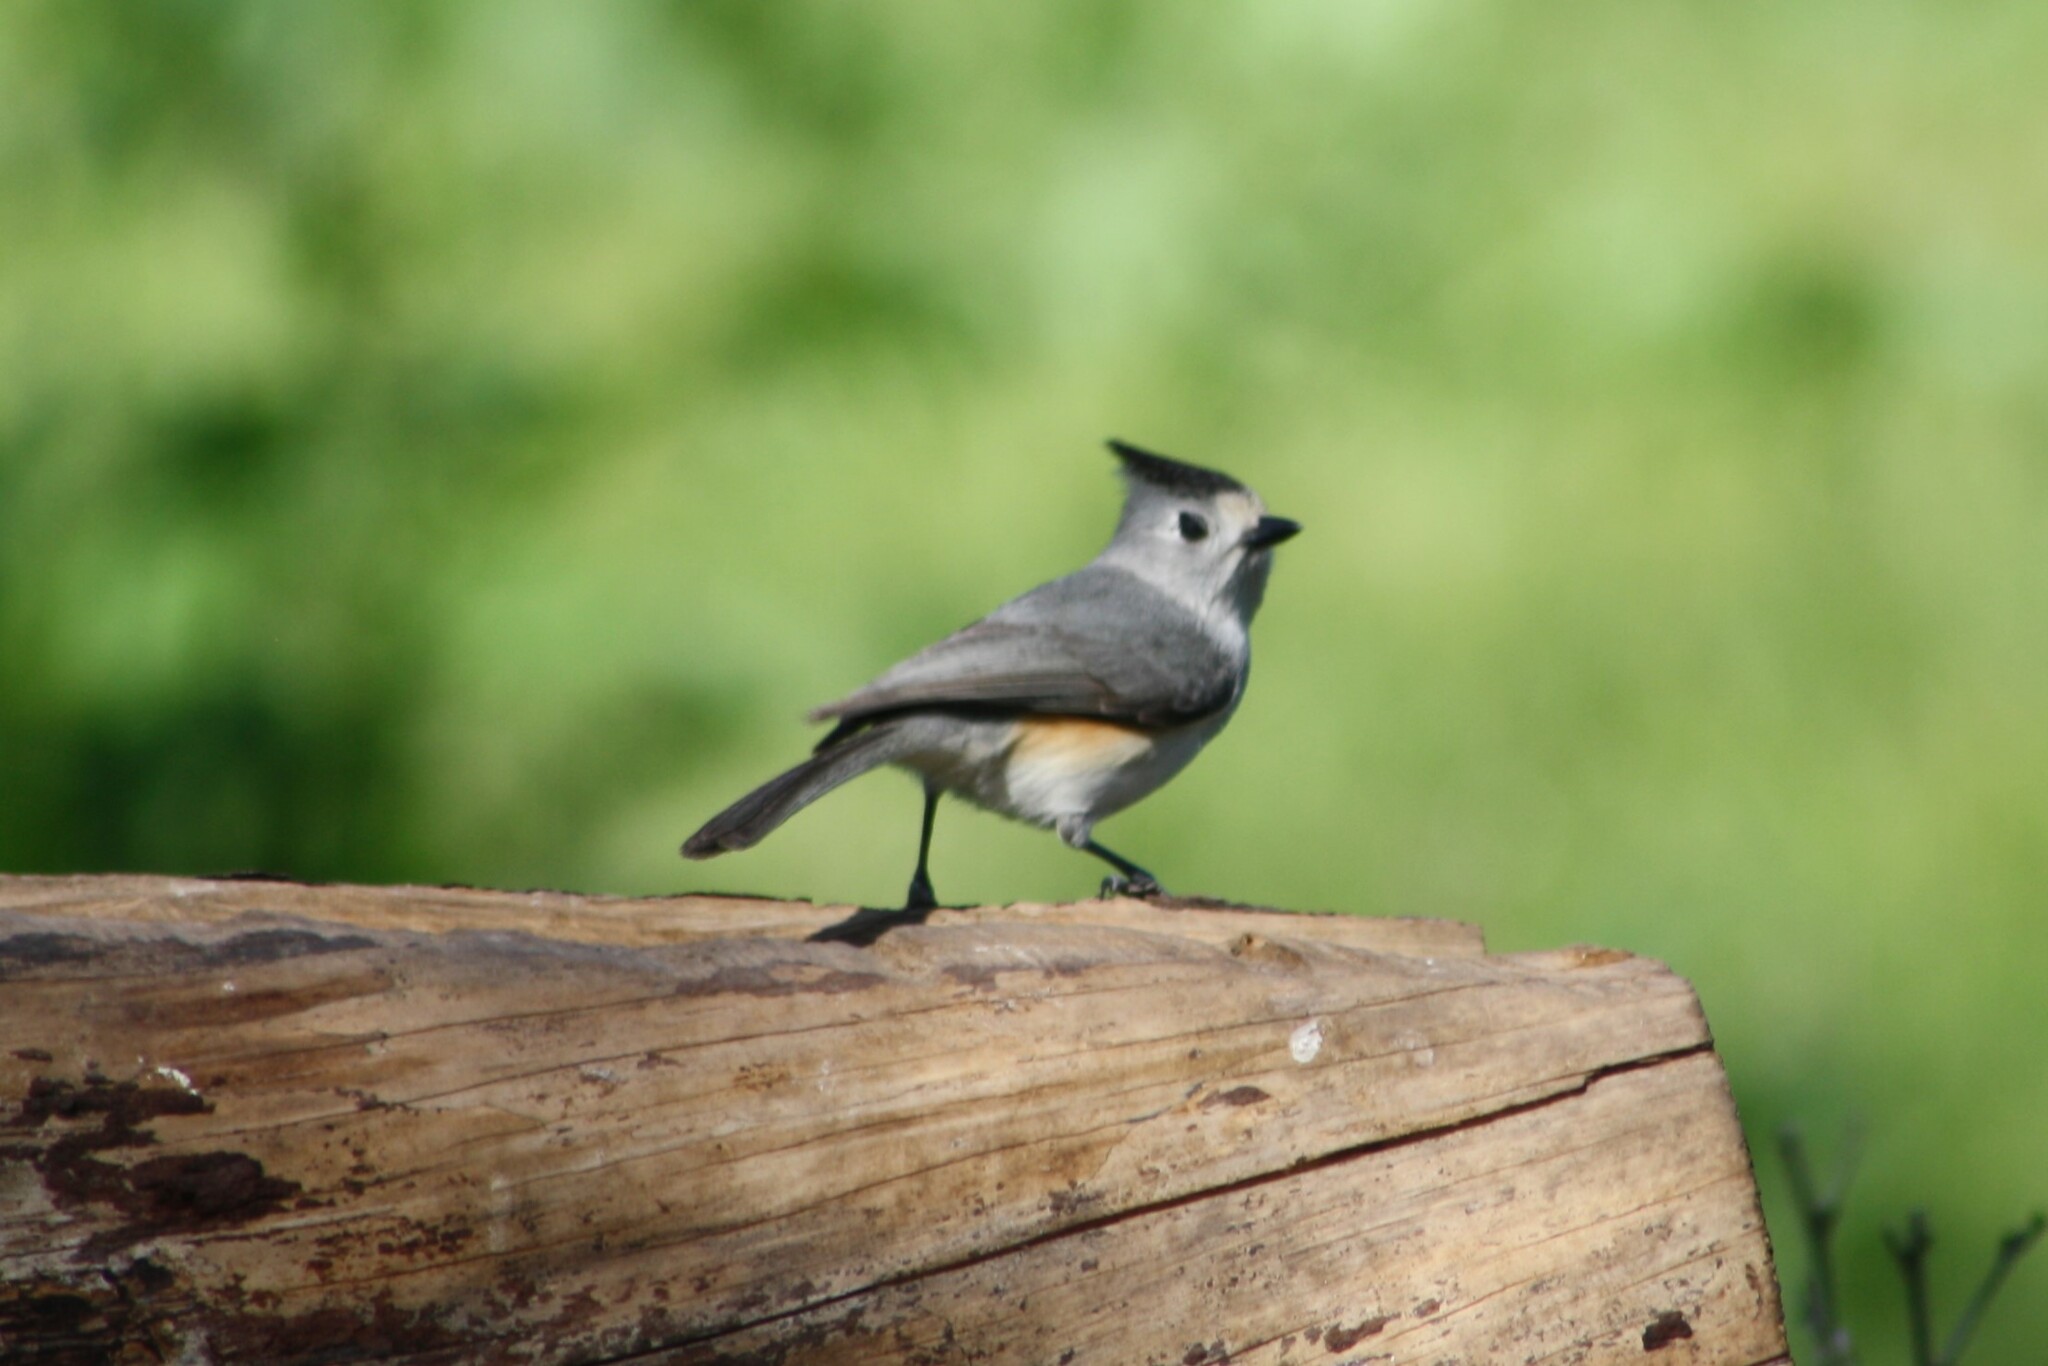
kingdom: Animalia
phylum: Chordata
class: Aves
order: Passeriformes
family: Paridae
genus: Baeolophus
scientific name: Baeolophus atricristatus
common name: Black-crested titmouse
